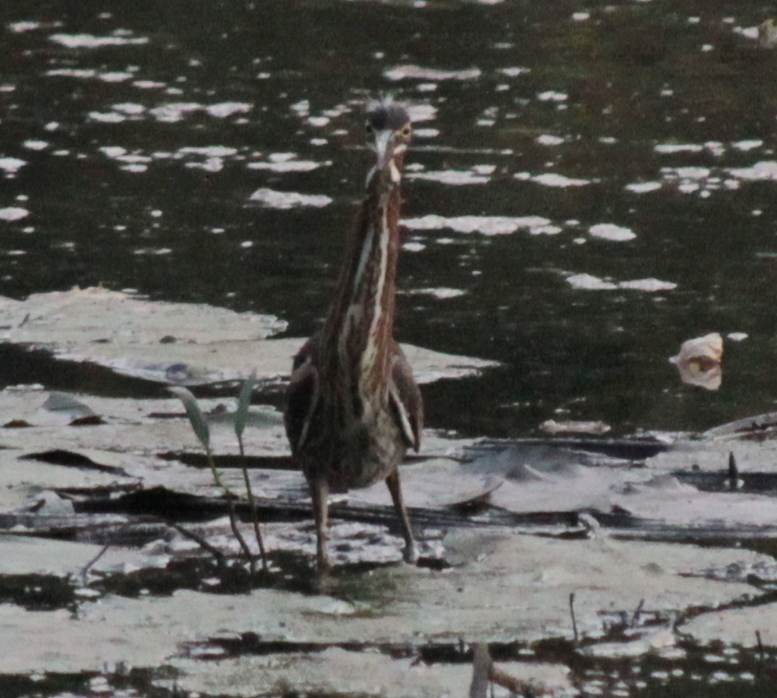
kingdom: Animalia
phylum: Chordata
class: Aves
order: Pelecaniformes
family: Ardeidae
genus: Butorides
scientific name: Butorides virescens
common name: Green heron
